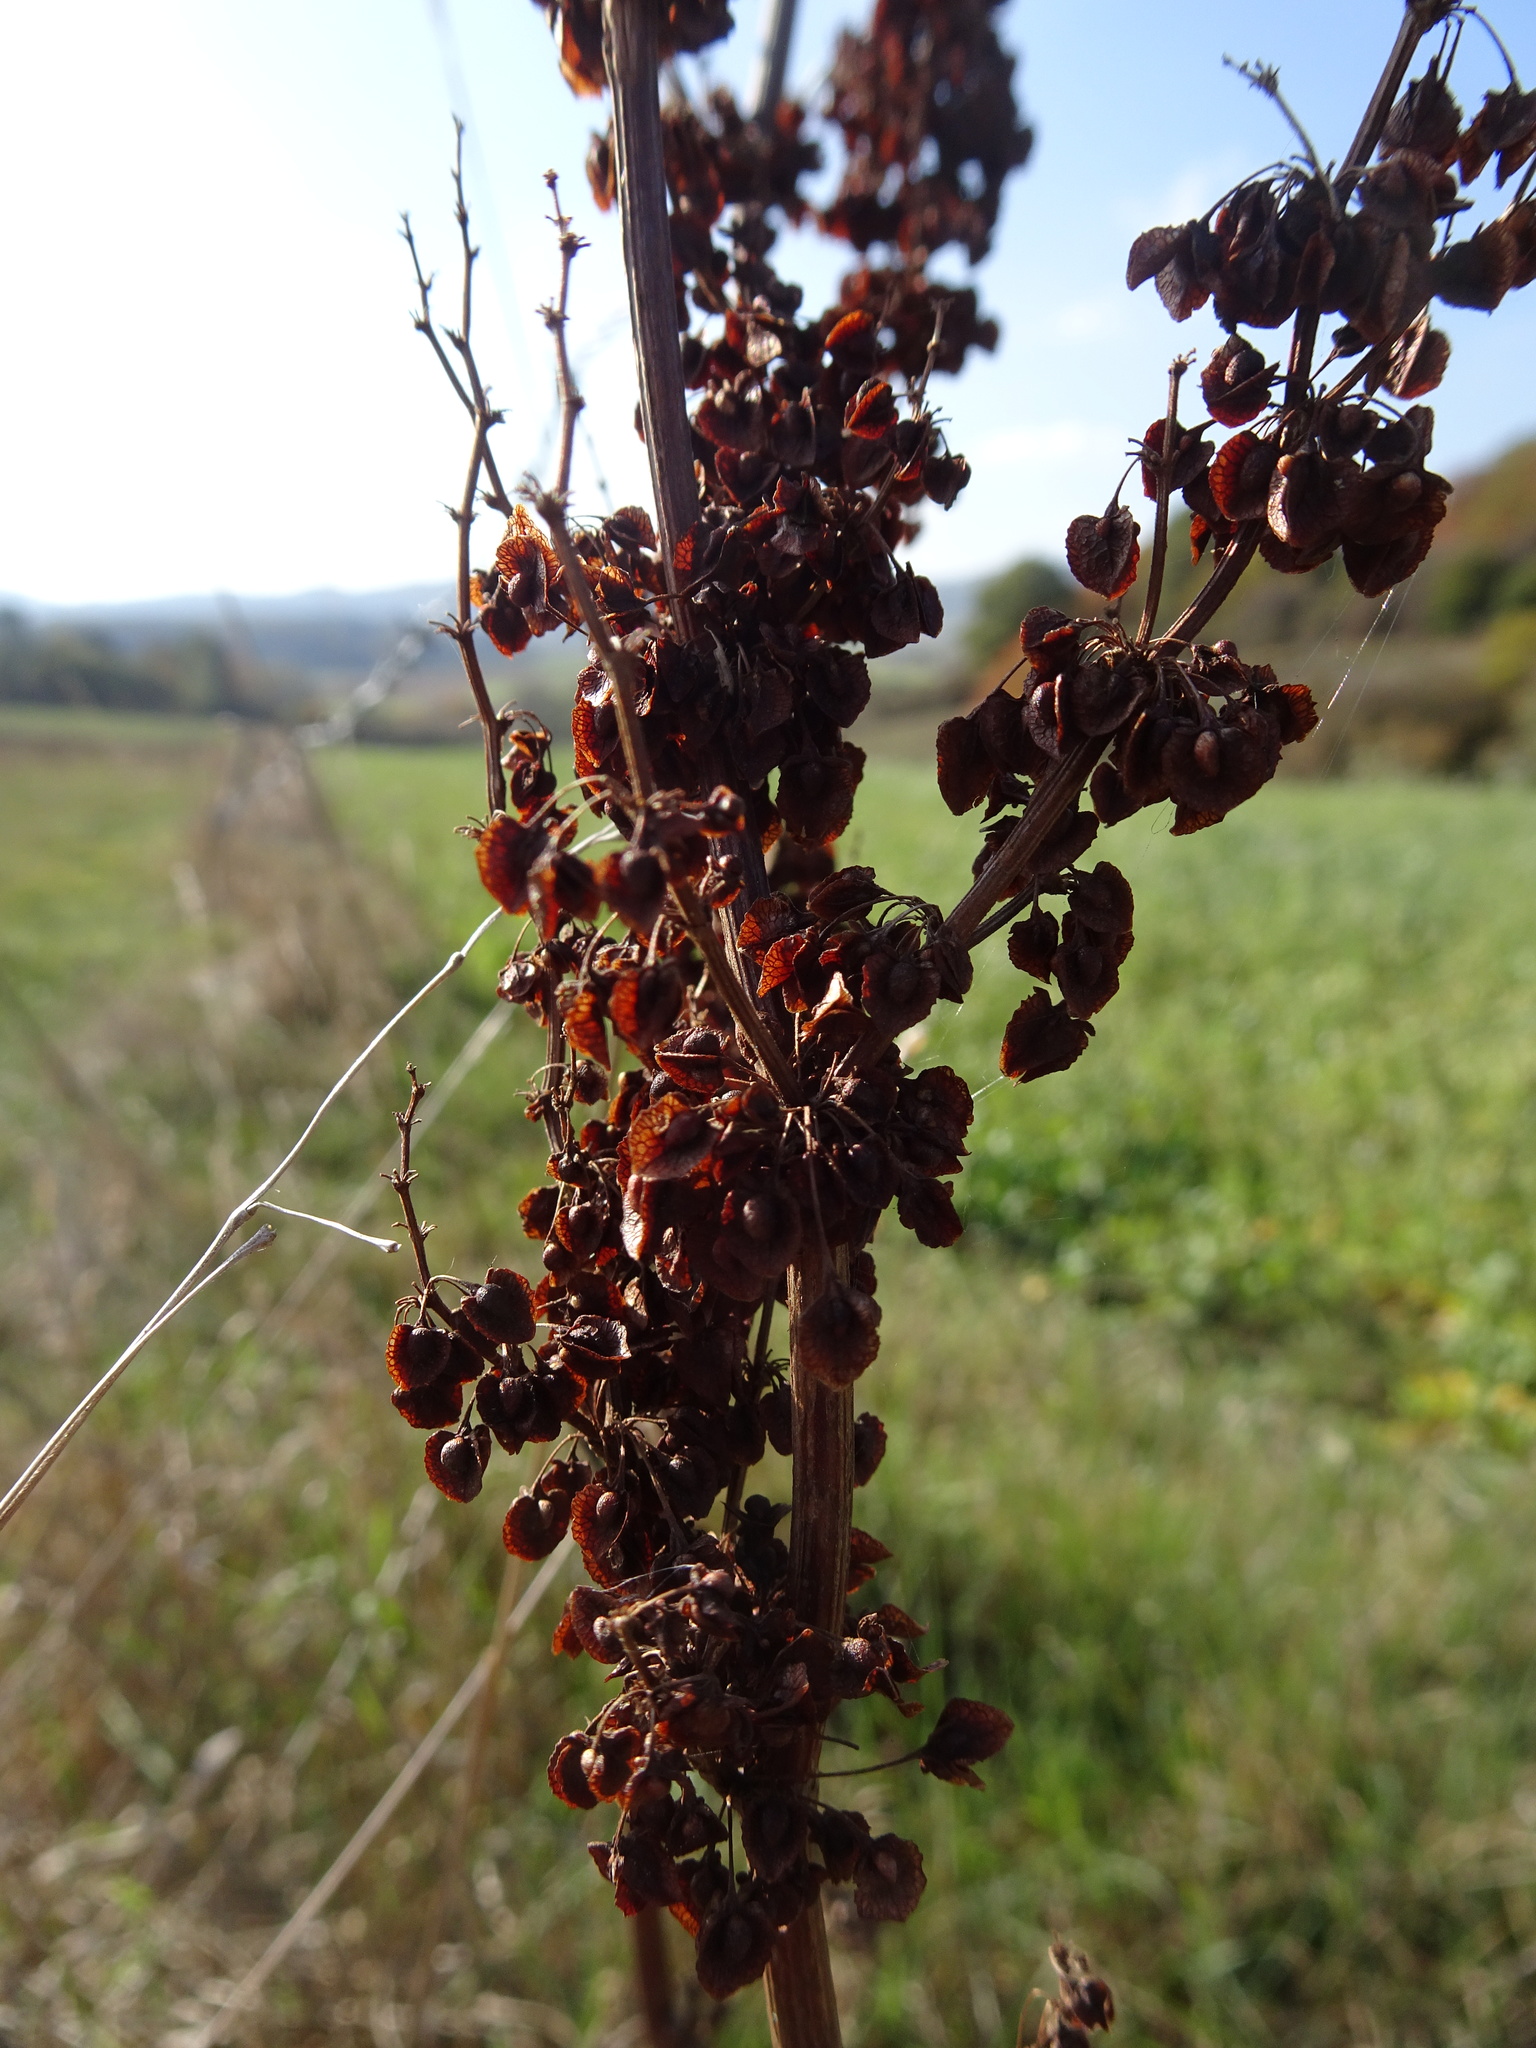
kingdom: Plantae
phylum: Tracheophyta
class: Magnoliopsida
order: Caryophyllales
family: Polygonaceae
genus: Rumex
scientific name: Rumex crispus
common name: Curled dock
